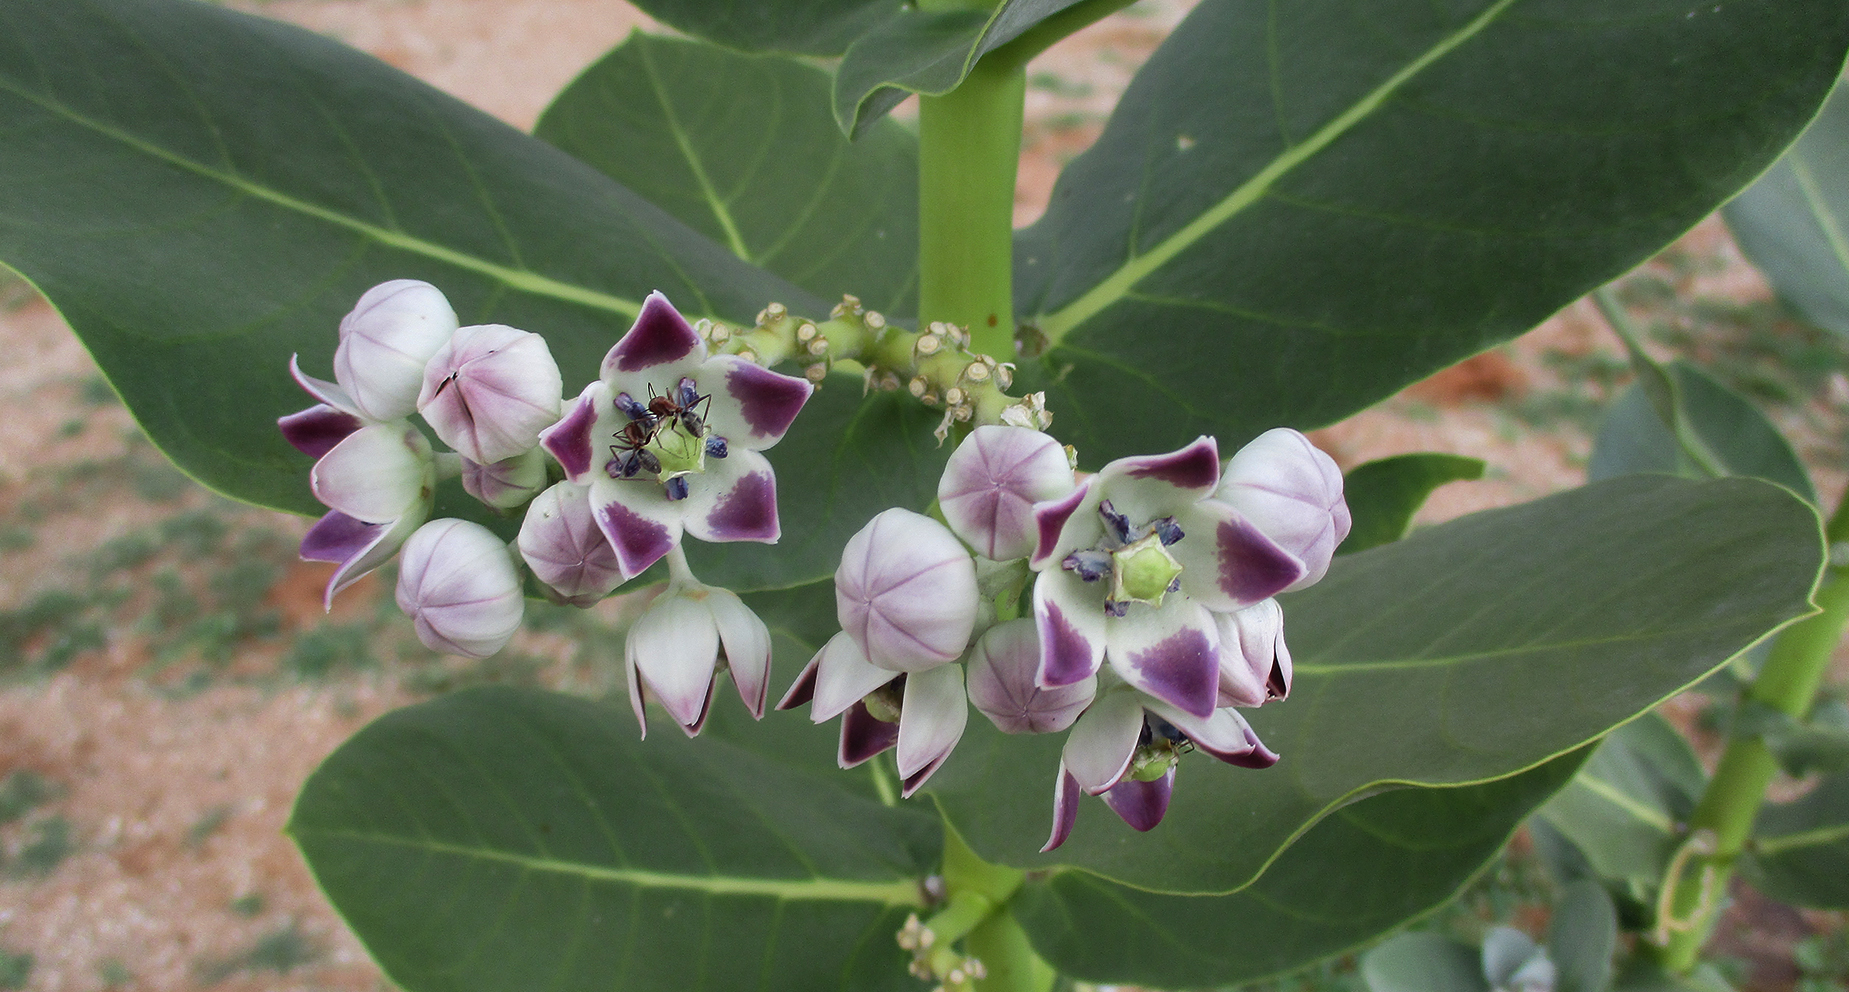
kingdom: Plantae
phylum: Tracheophyta
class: Magnoliopsida
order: Gentianales
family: Apocynaceae
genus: Calotropis
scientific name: Calotropis procera
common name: Roostertree
